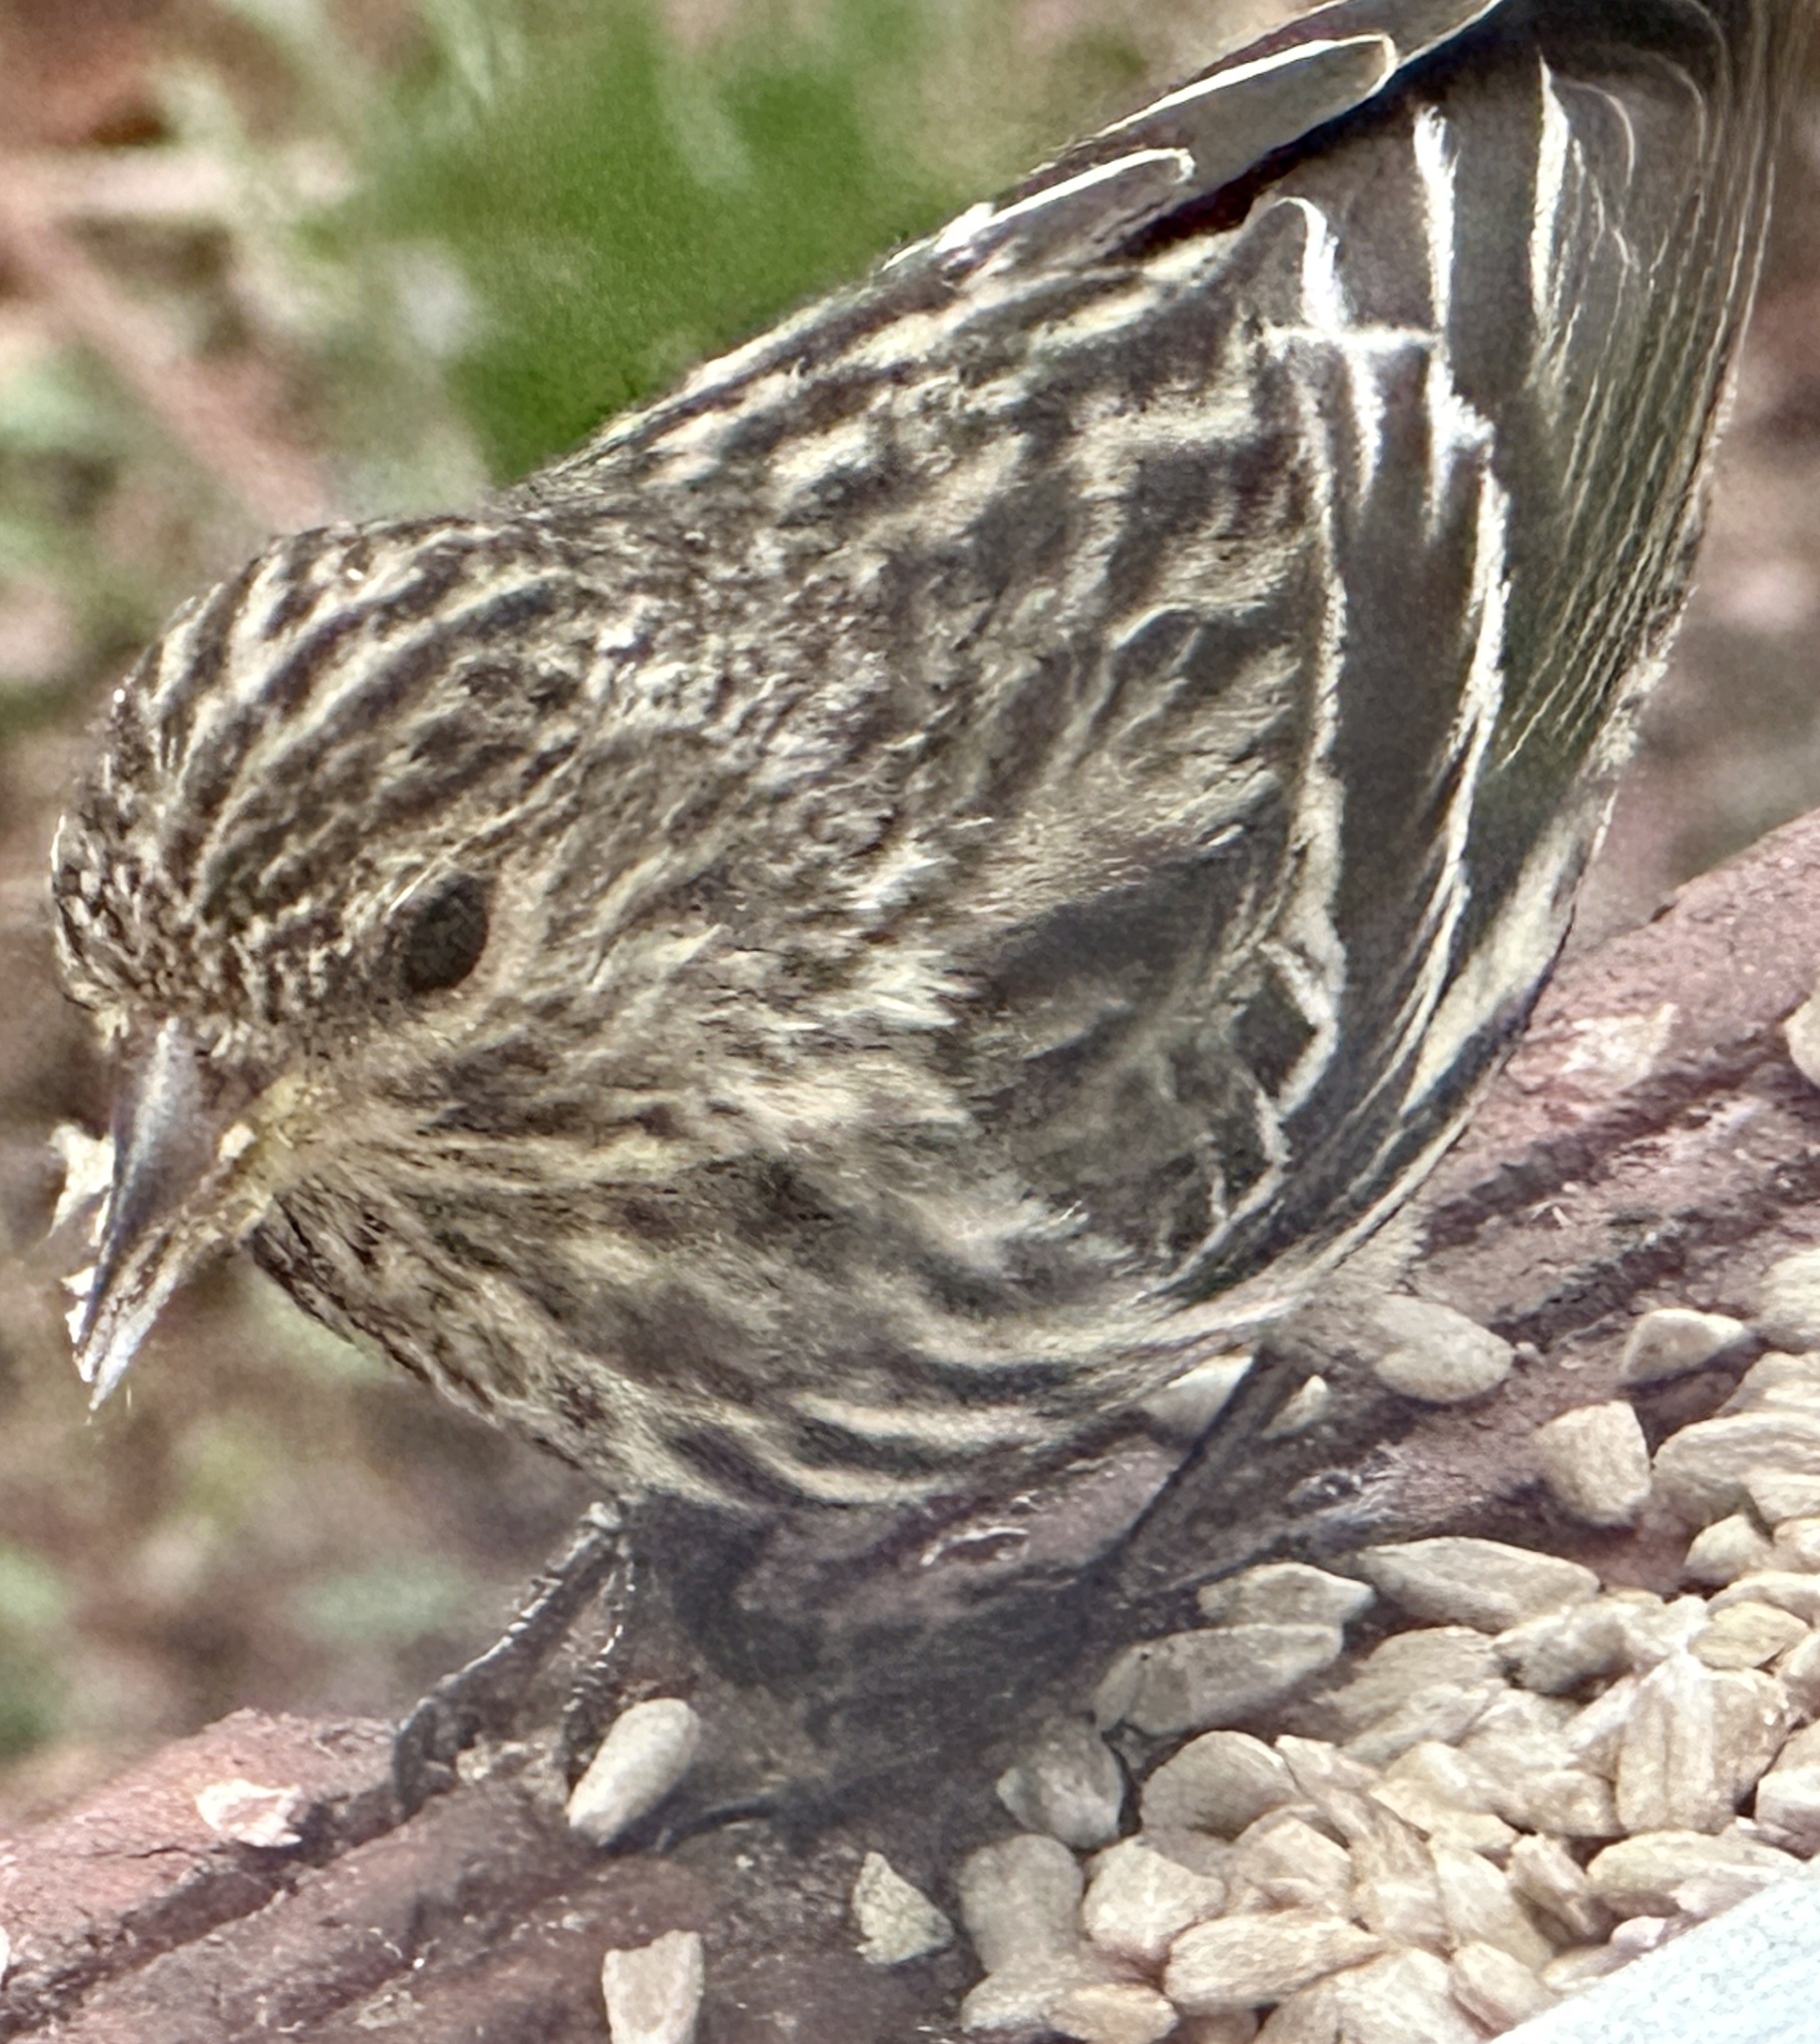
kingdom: Animalia
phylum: Chordata
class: Aves
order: Passeriformes
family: Fringillidae
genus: Spinus
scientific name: Spinus pinus
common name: Pine siskin
